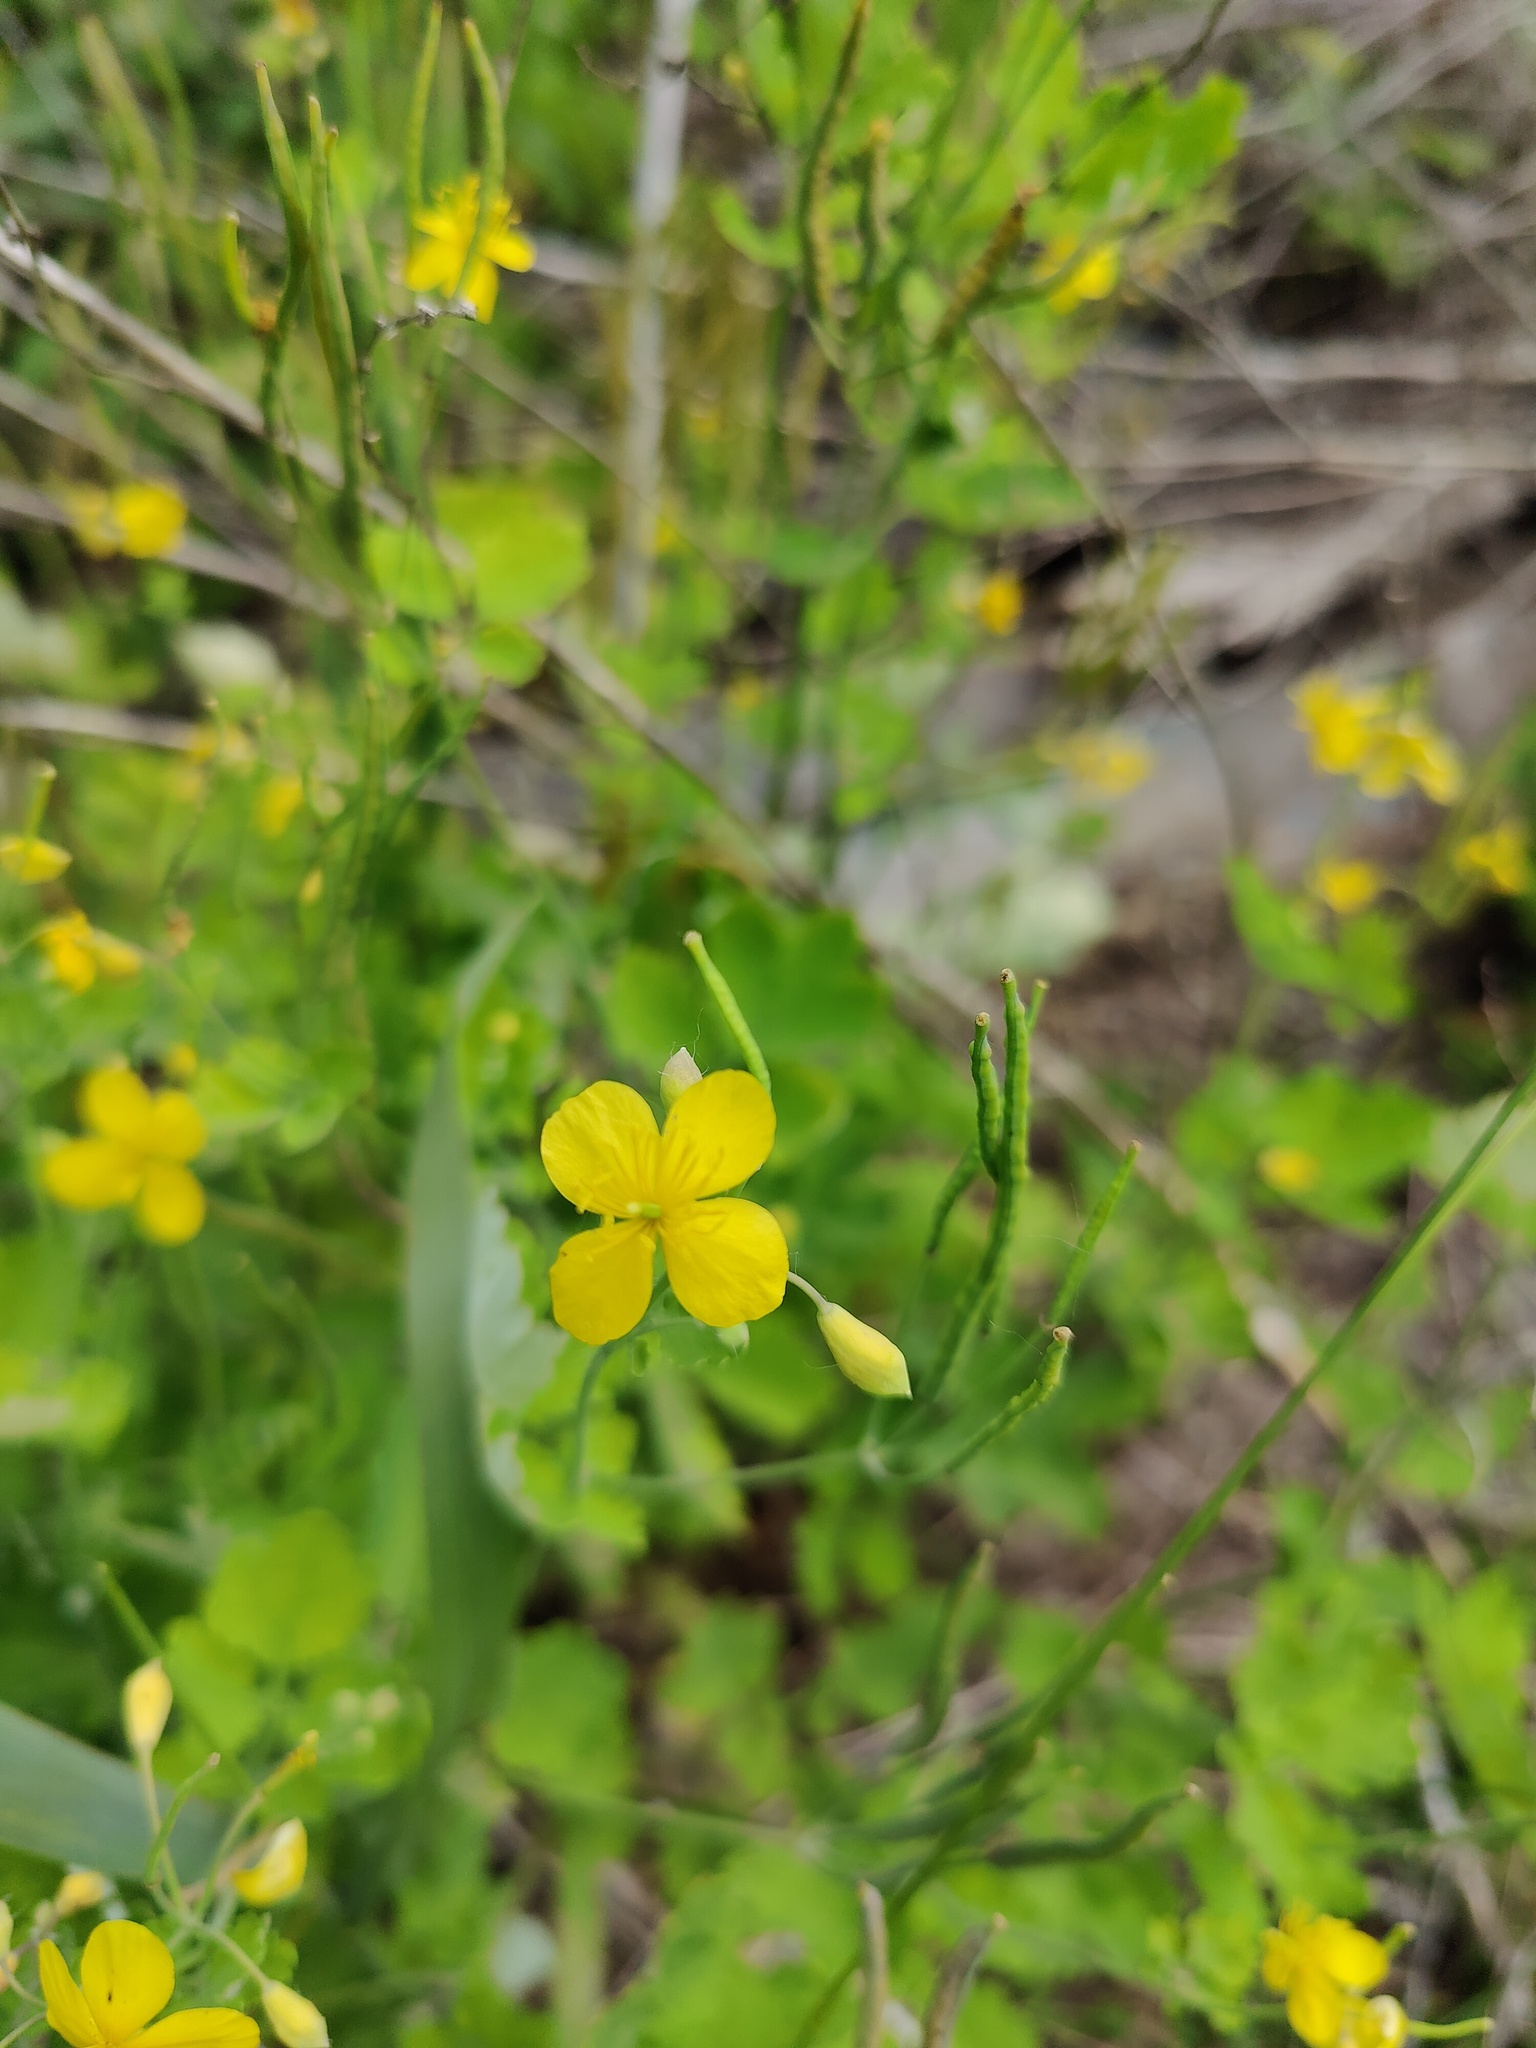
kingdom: Plantae
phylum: Tracheophyta
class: Magnoliopsida
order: Ranunculales
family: Papaveraceae
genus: Chelidonium
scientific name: Chelidonium majus
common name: Greater celandine
